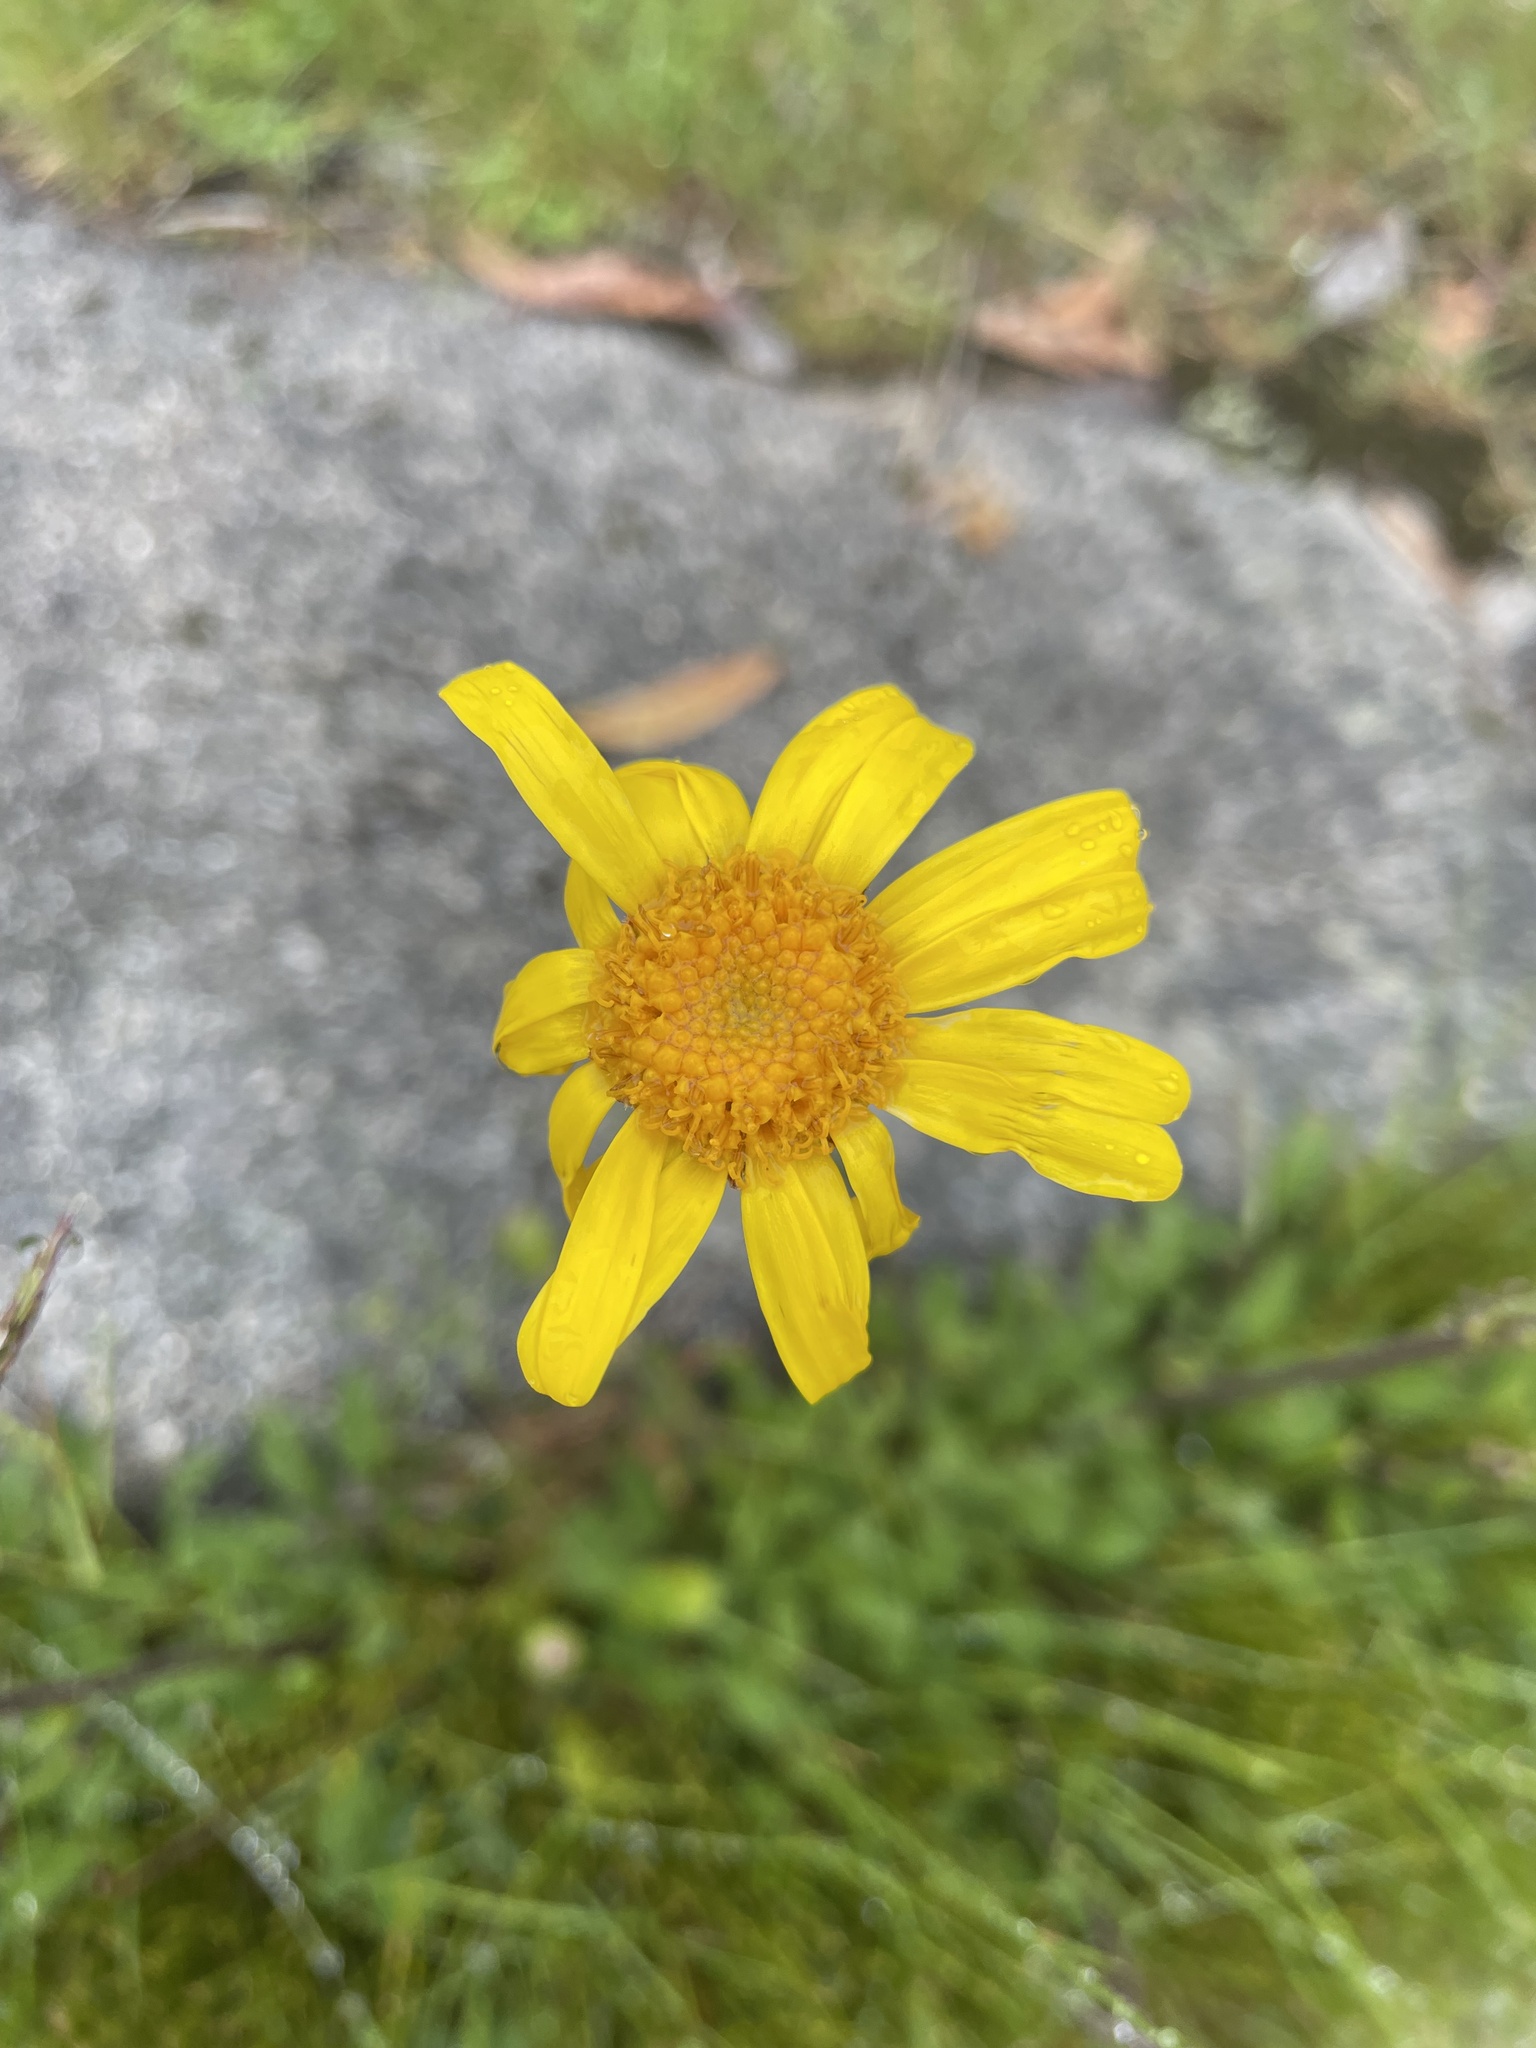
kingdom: Plantae
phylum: Tracheophyta
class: Magnoliopsida
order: Asterales
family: Asteraceae
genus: Scapisenecio
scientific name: Scapisenecio pectinatus
